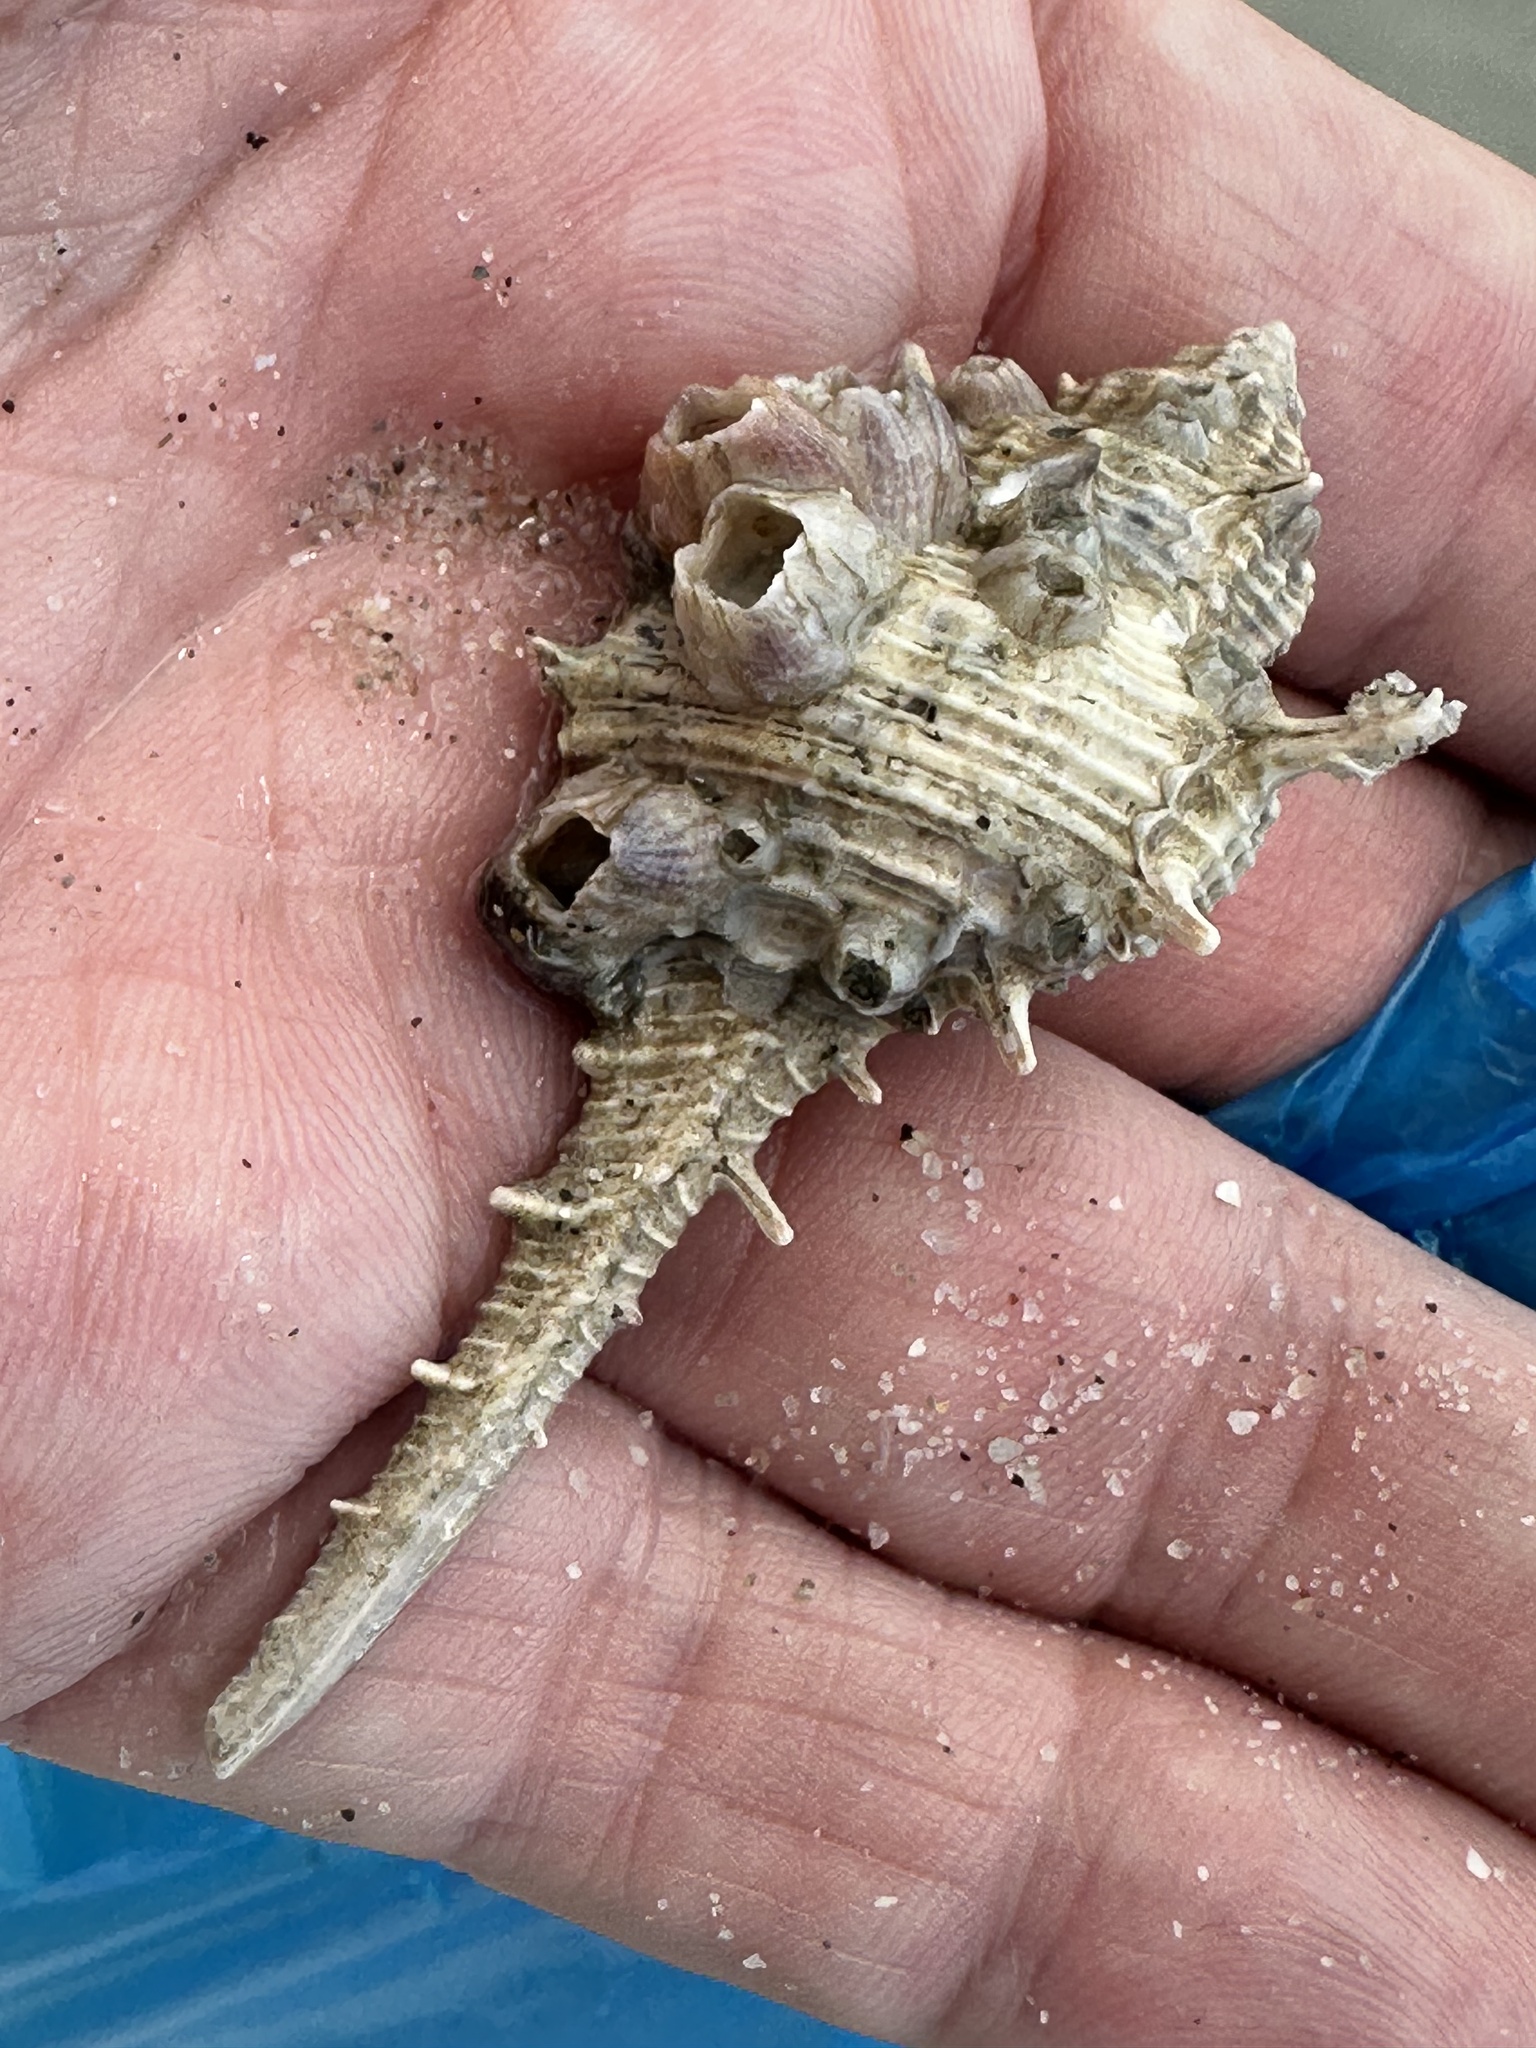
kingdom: Animalia
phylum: Mollusca
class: Gastropoda
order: Neogastropoda
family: Muricidae
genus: Murex
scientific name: Murex trapa
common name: Rare spined murex
